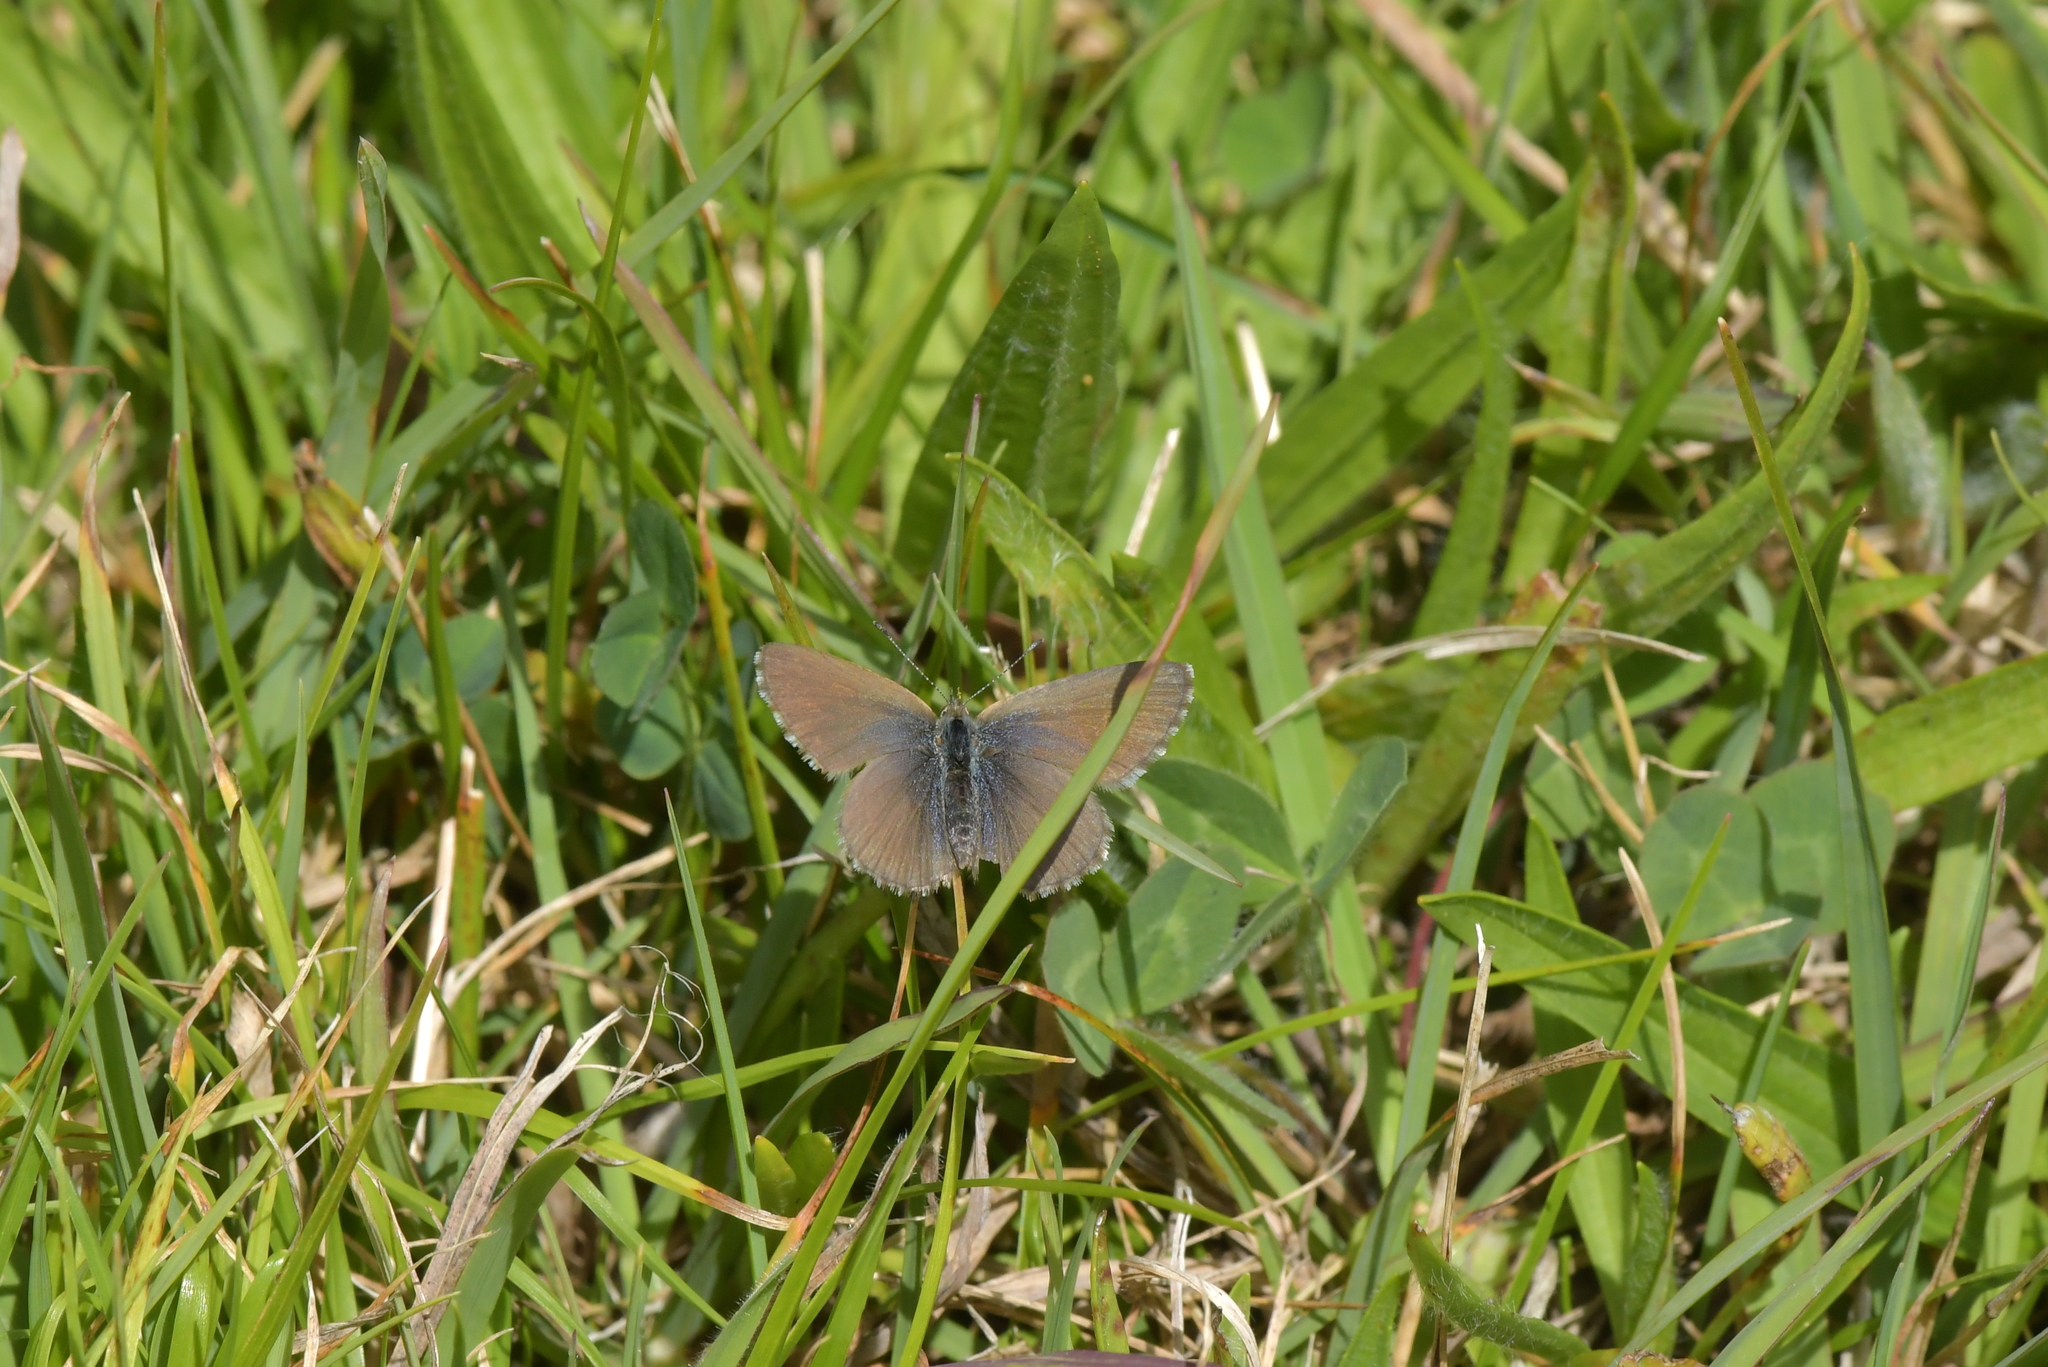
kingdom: Animalia
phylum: Arthropoda
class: Insecta
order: Lepidoptera
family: Lycaenidae
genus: Zizina
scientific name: Zizina labradus
